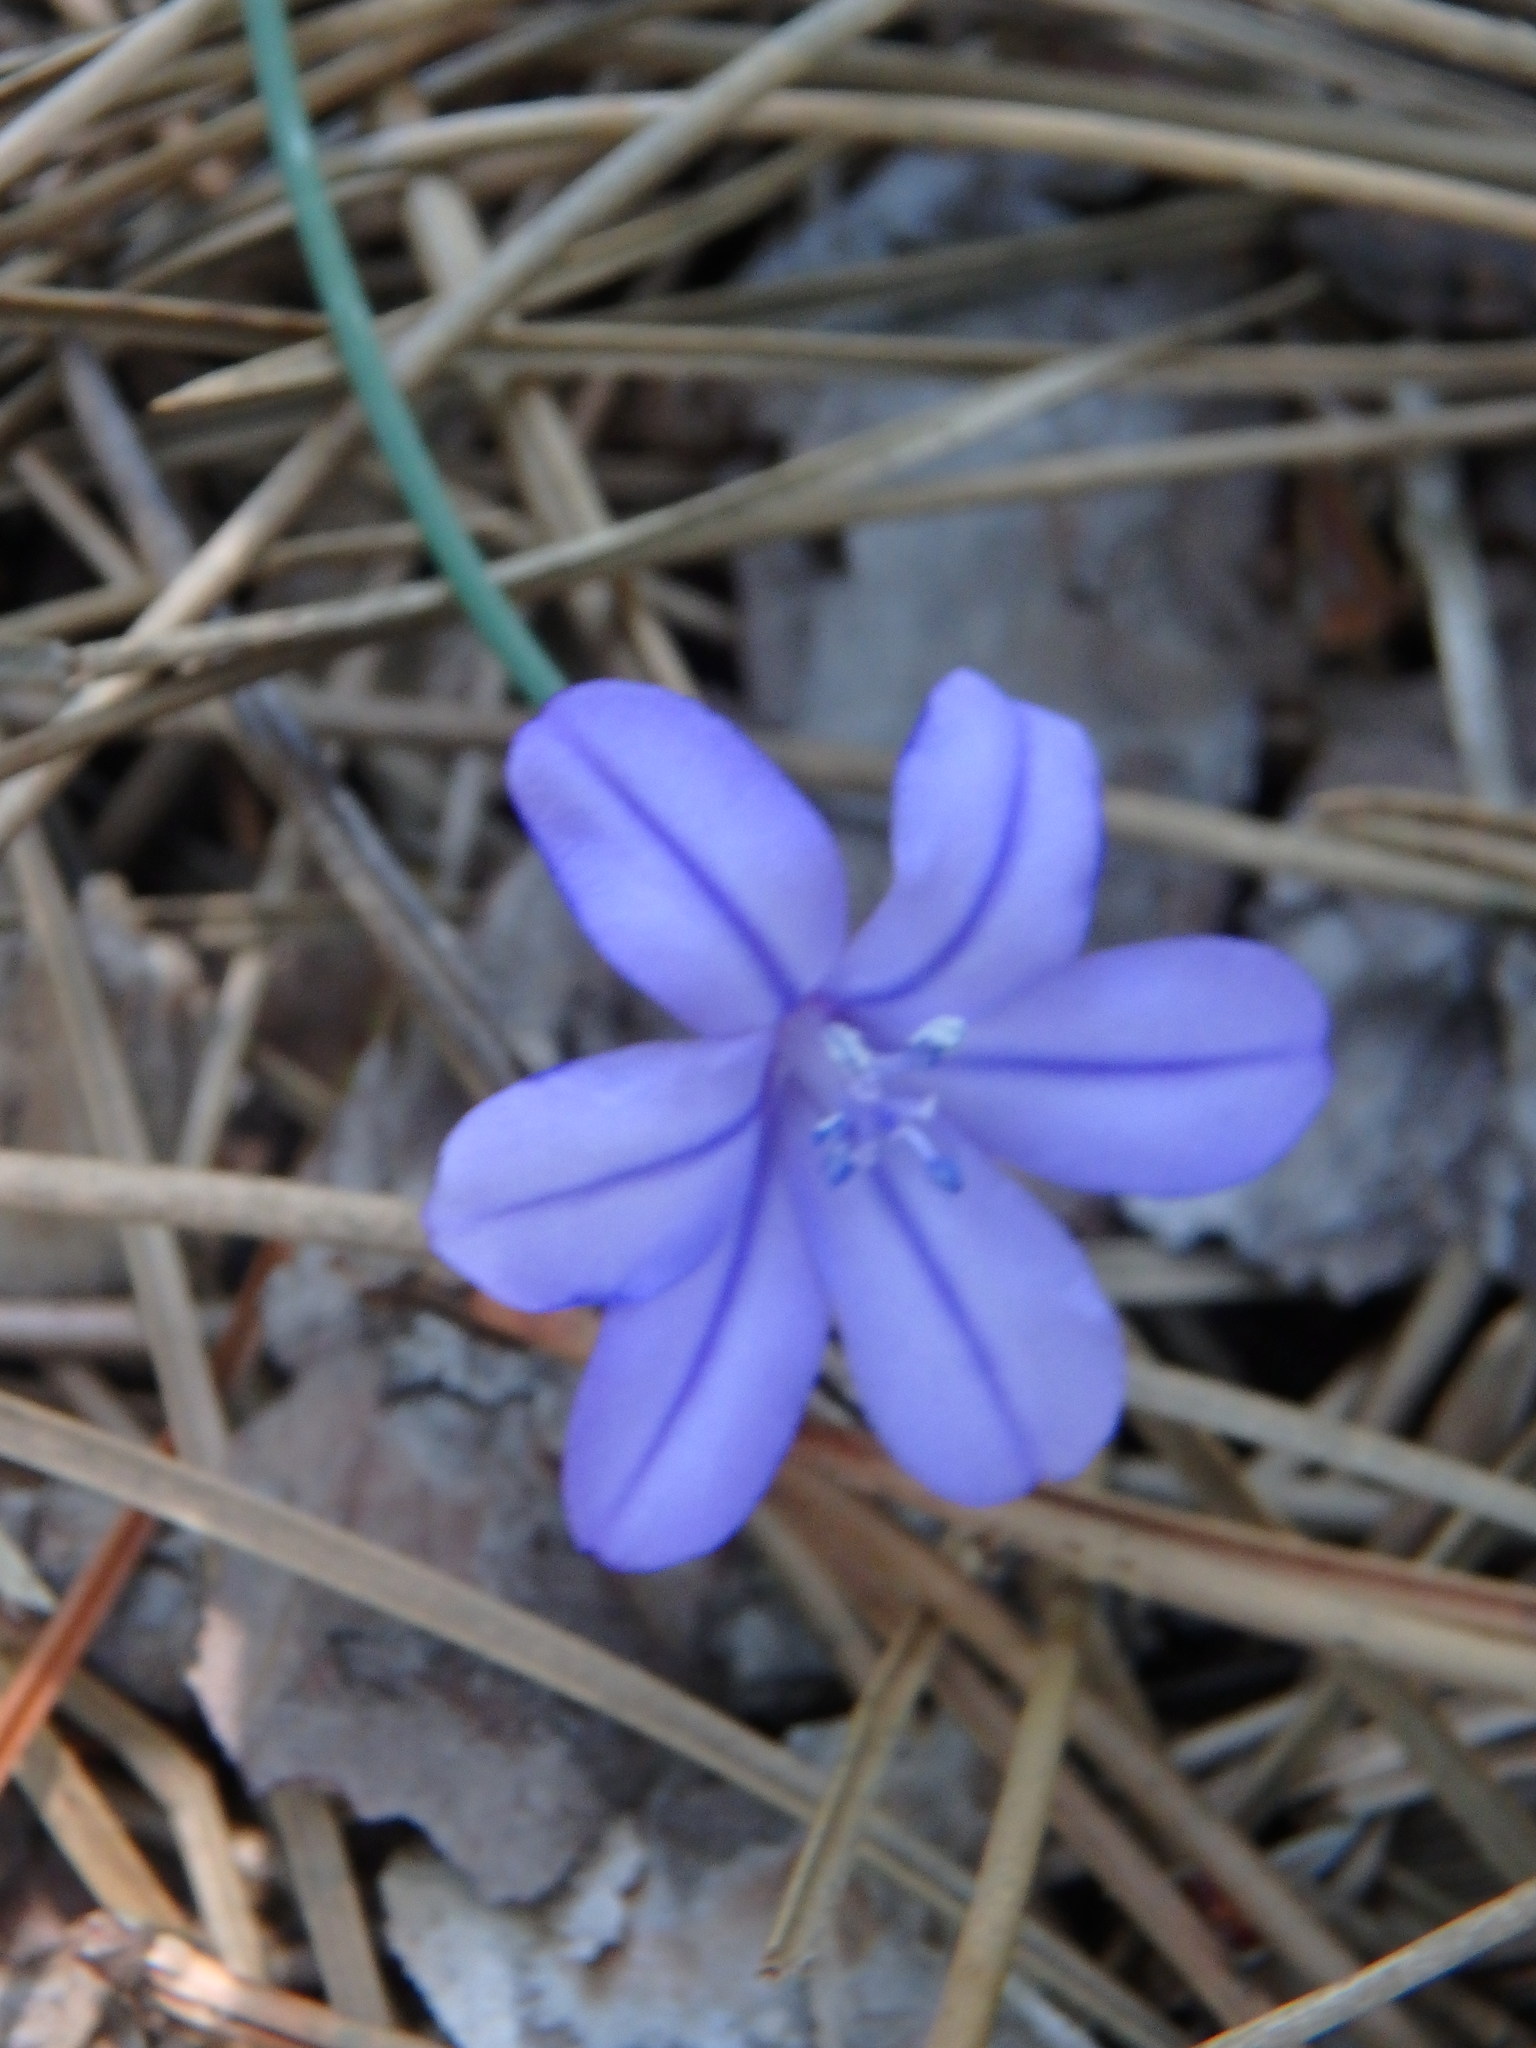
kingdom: Plantae
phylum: Tracheophyta
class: Liliopsida
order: Asparagales
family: Asparagaceae
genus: Aphyllanthes
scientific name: Aphyllanthes monspeliensis
